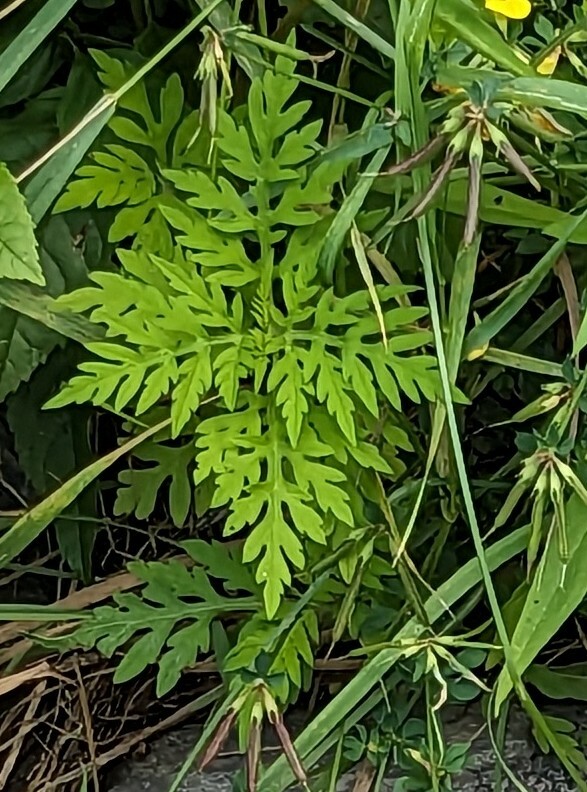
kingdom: Plantae
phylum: Tracheophyta
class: Magnoliopsida
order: Asterales
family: Asteraceae
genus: Ambrosia
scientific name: Ambrosia artemisiifolia
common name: Annual ragweed
